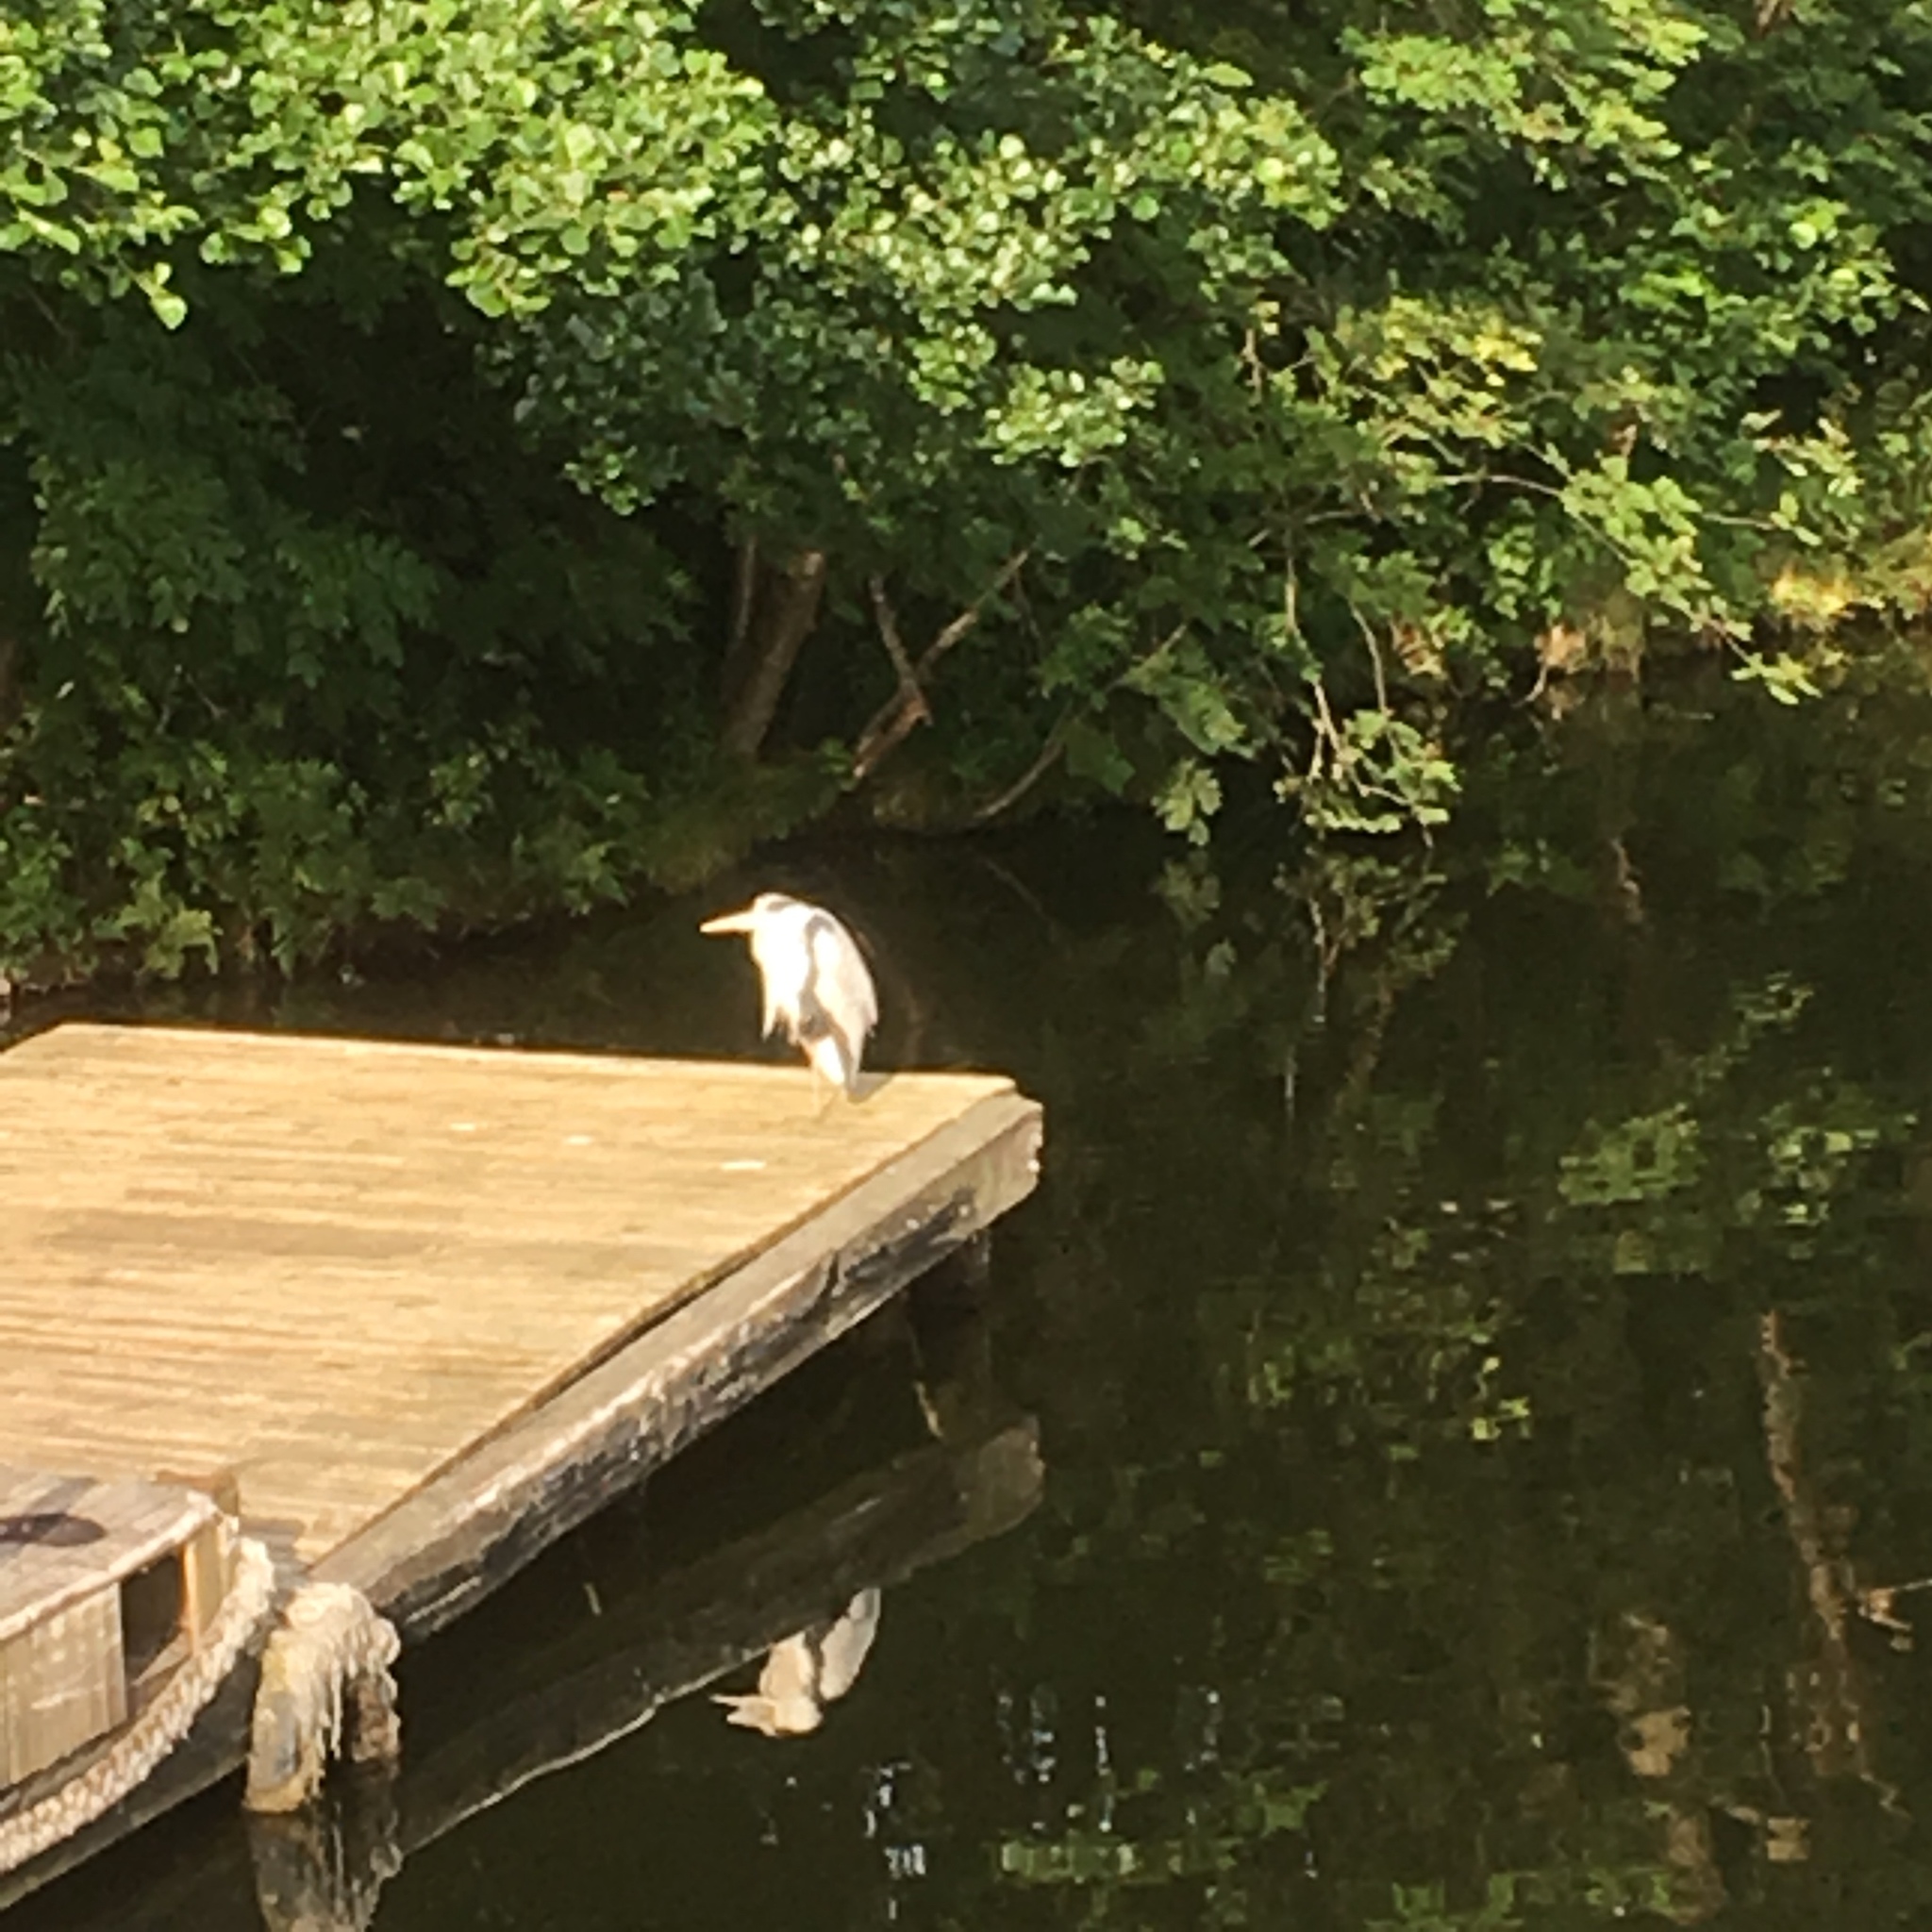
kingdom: Animalia
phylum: Chordata
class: Aves
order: Pelecaniformes
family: Ardeidae
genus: Ardea
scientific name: Ardea cinerea
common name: Grey heron
